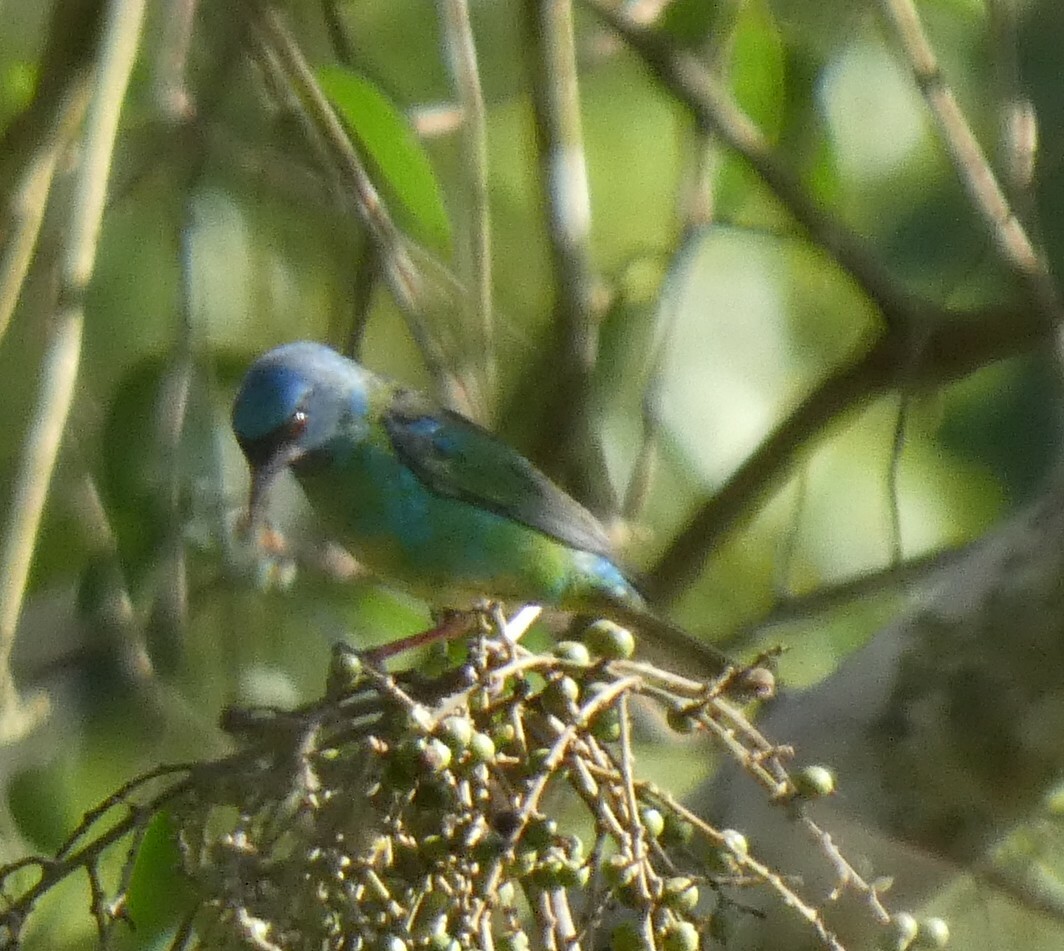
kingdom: Animalia
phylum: Chordata
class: Aves
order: Passeriformes
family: Thraupidae
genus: Dacnis
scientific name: Dacnis cayana
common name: Blue dacnis
